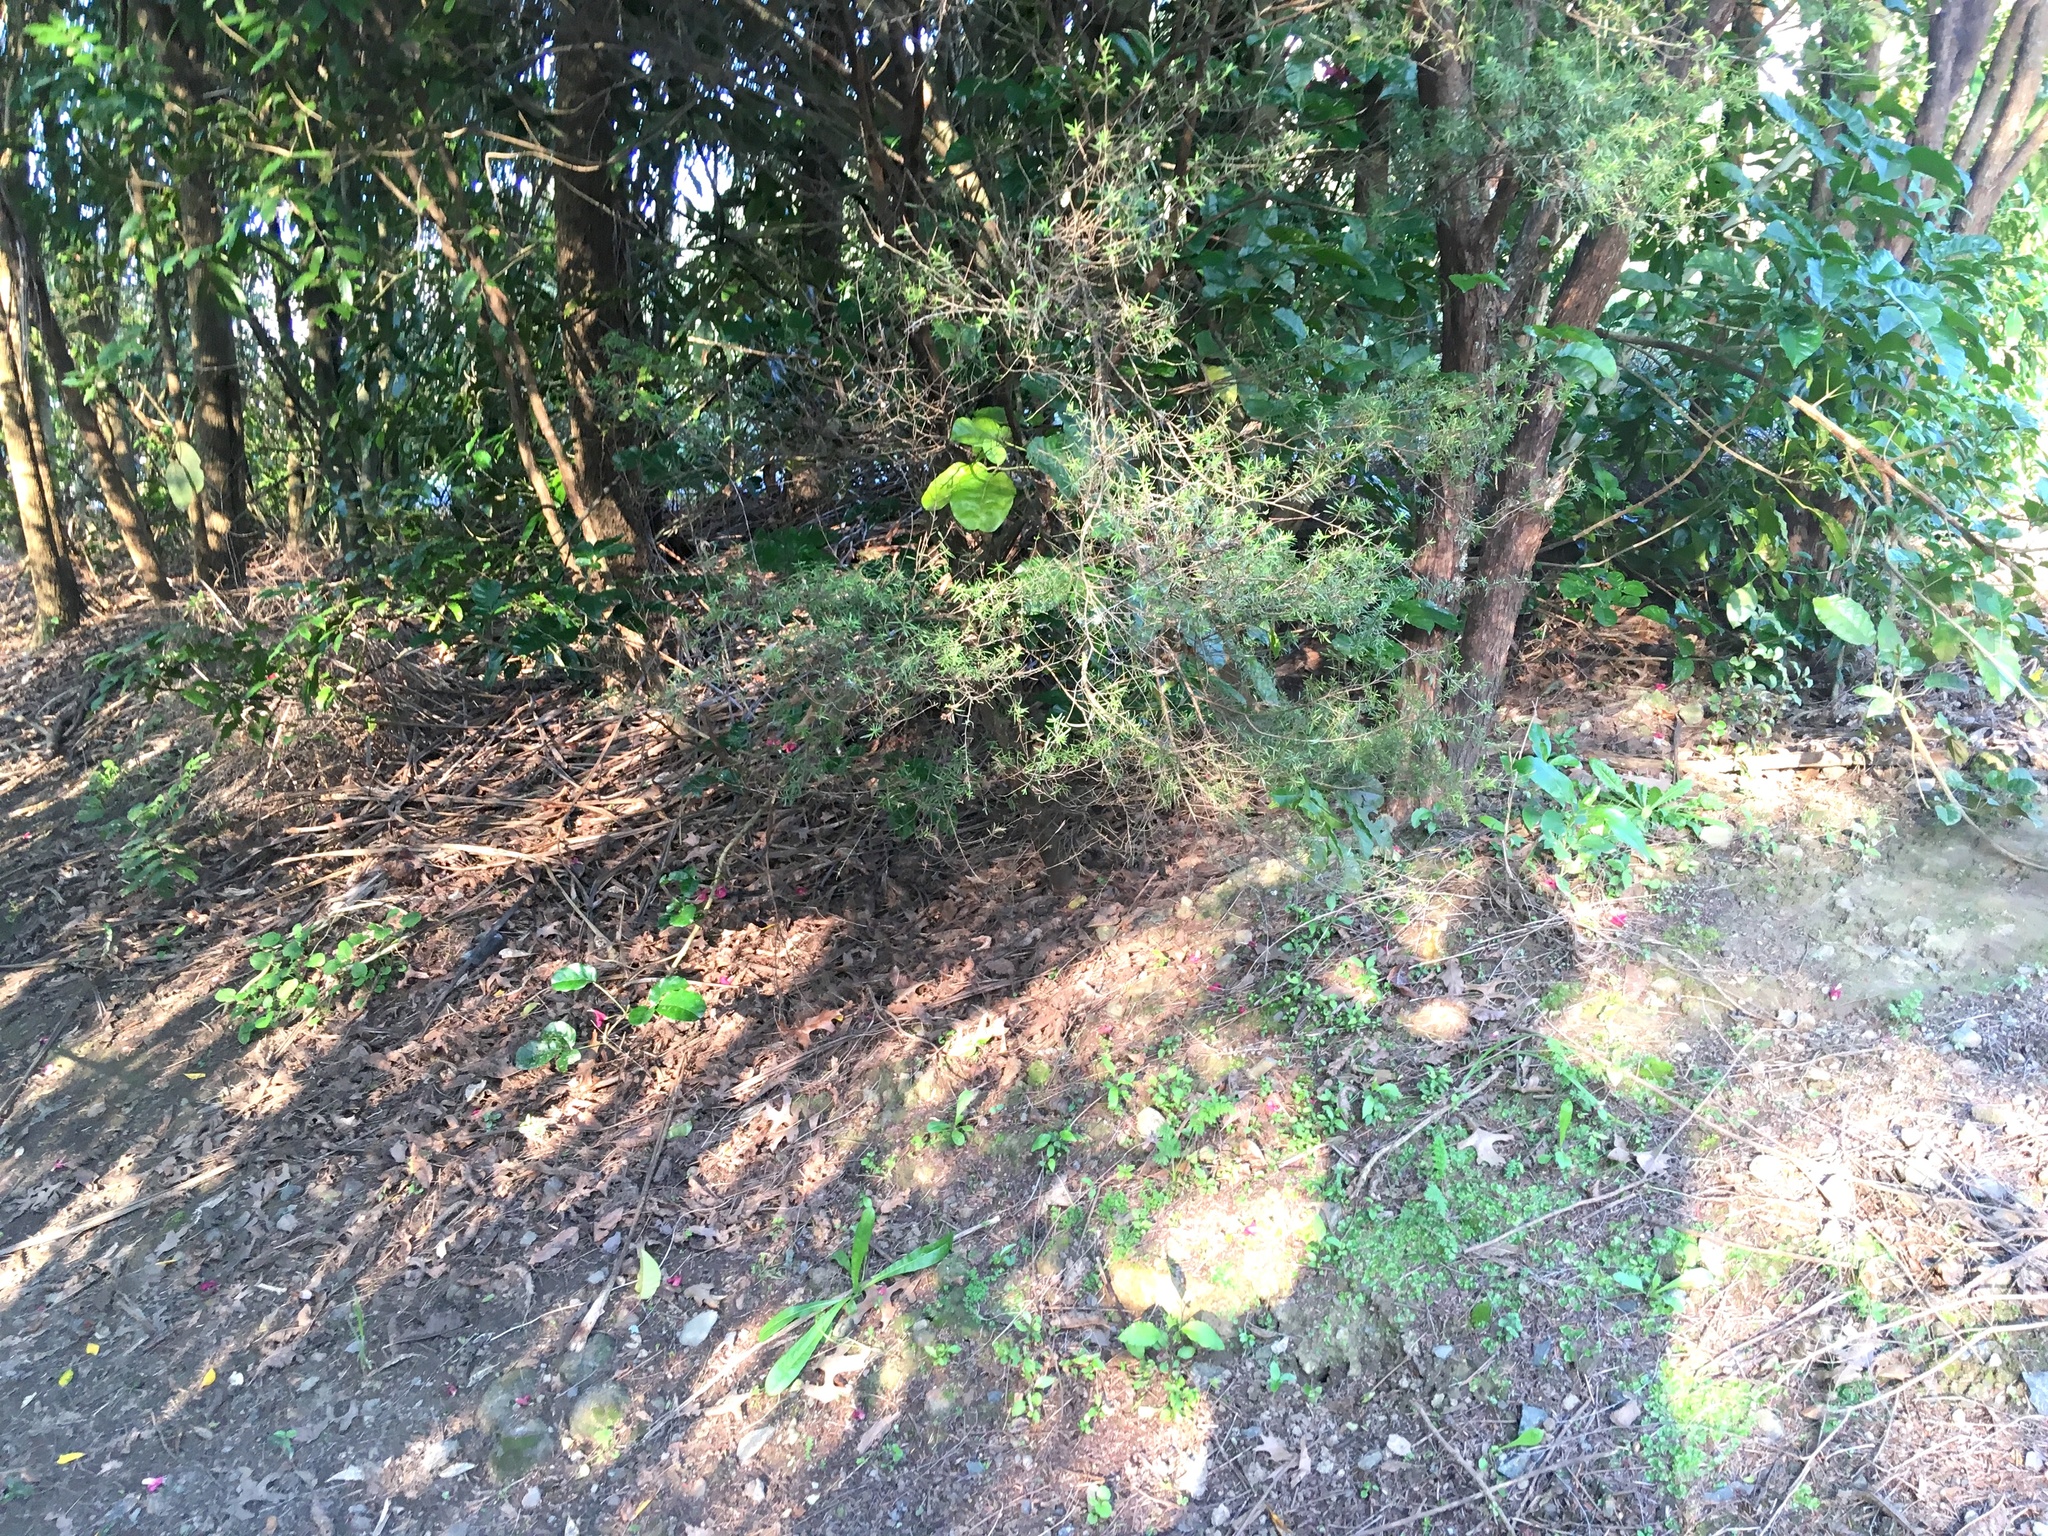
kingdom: Plantae
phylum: Tracheophyta
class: Magnoliopsida
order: Myrtales
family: Myrtaceae
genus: Kunzea
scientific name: Kunzea robusta
